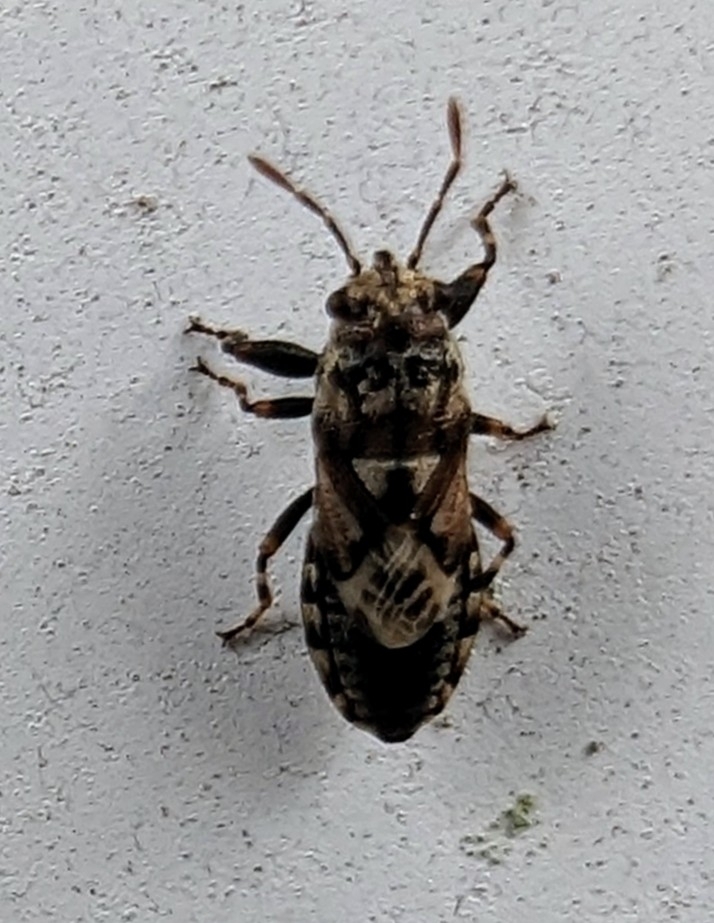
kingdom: Animalia
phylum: Arthropoda
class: Insecta
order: Hemiptera
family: Pachygronthidae
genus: Phlegyas
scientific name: Phlegyas abbreviatus
